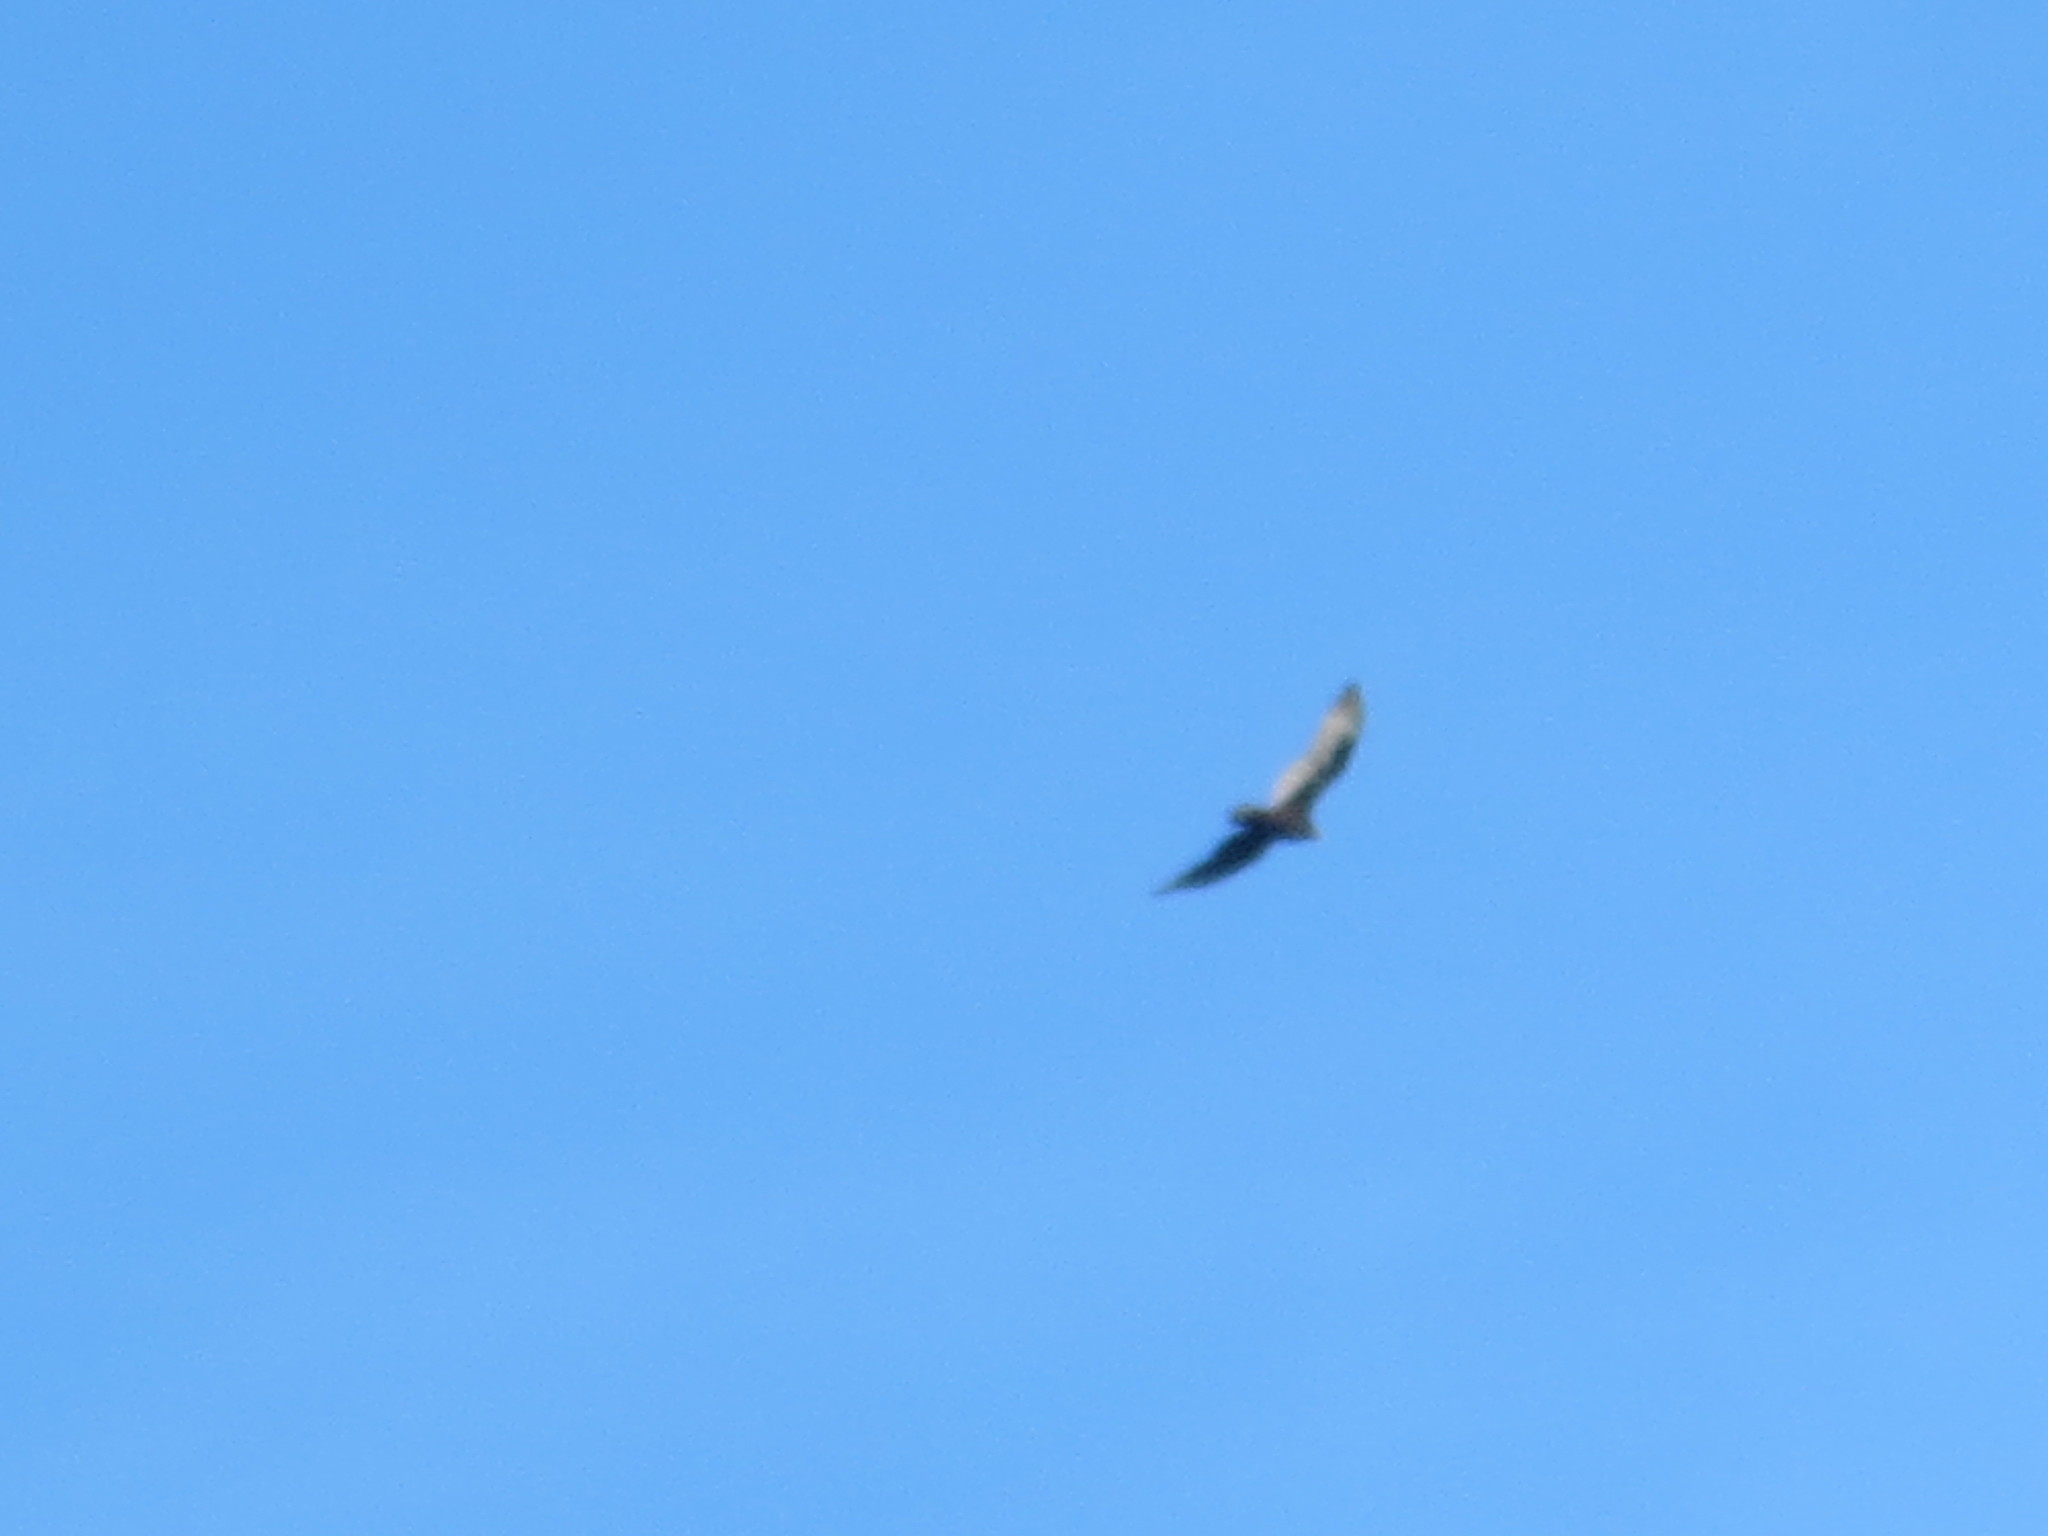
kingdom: Animalia
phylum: Chordata
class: Aves
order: Accipitriformes
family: Cathartidae
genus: Cathartes
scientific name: Cathartes aura
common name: Turkey vulture
